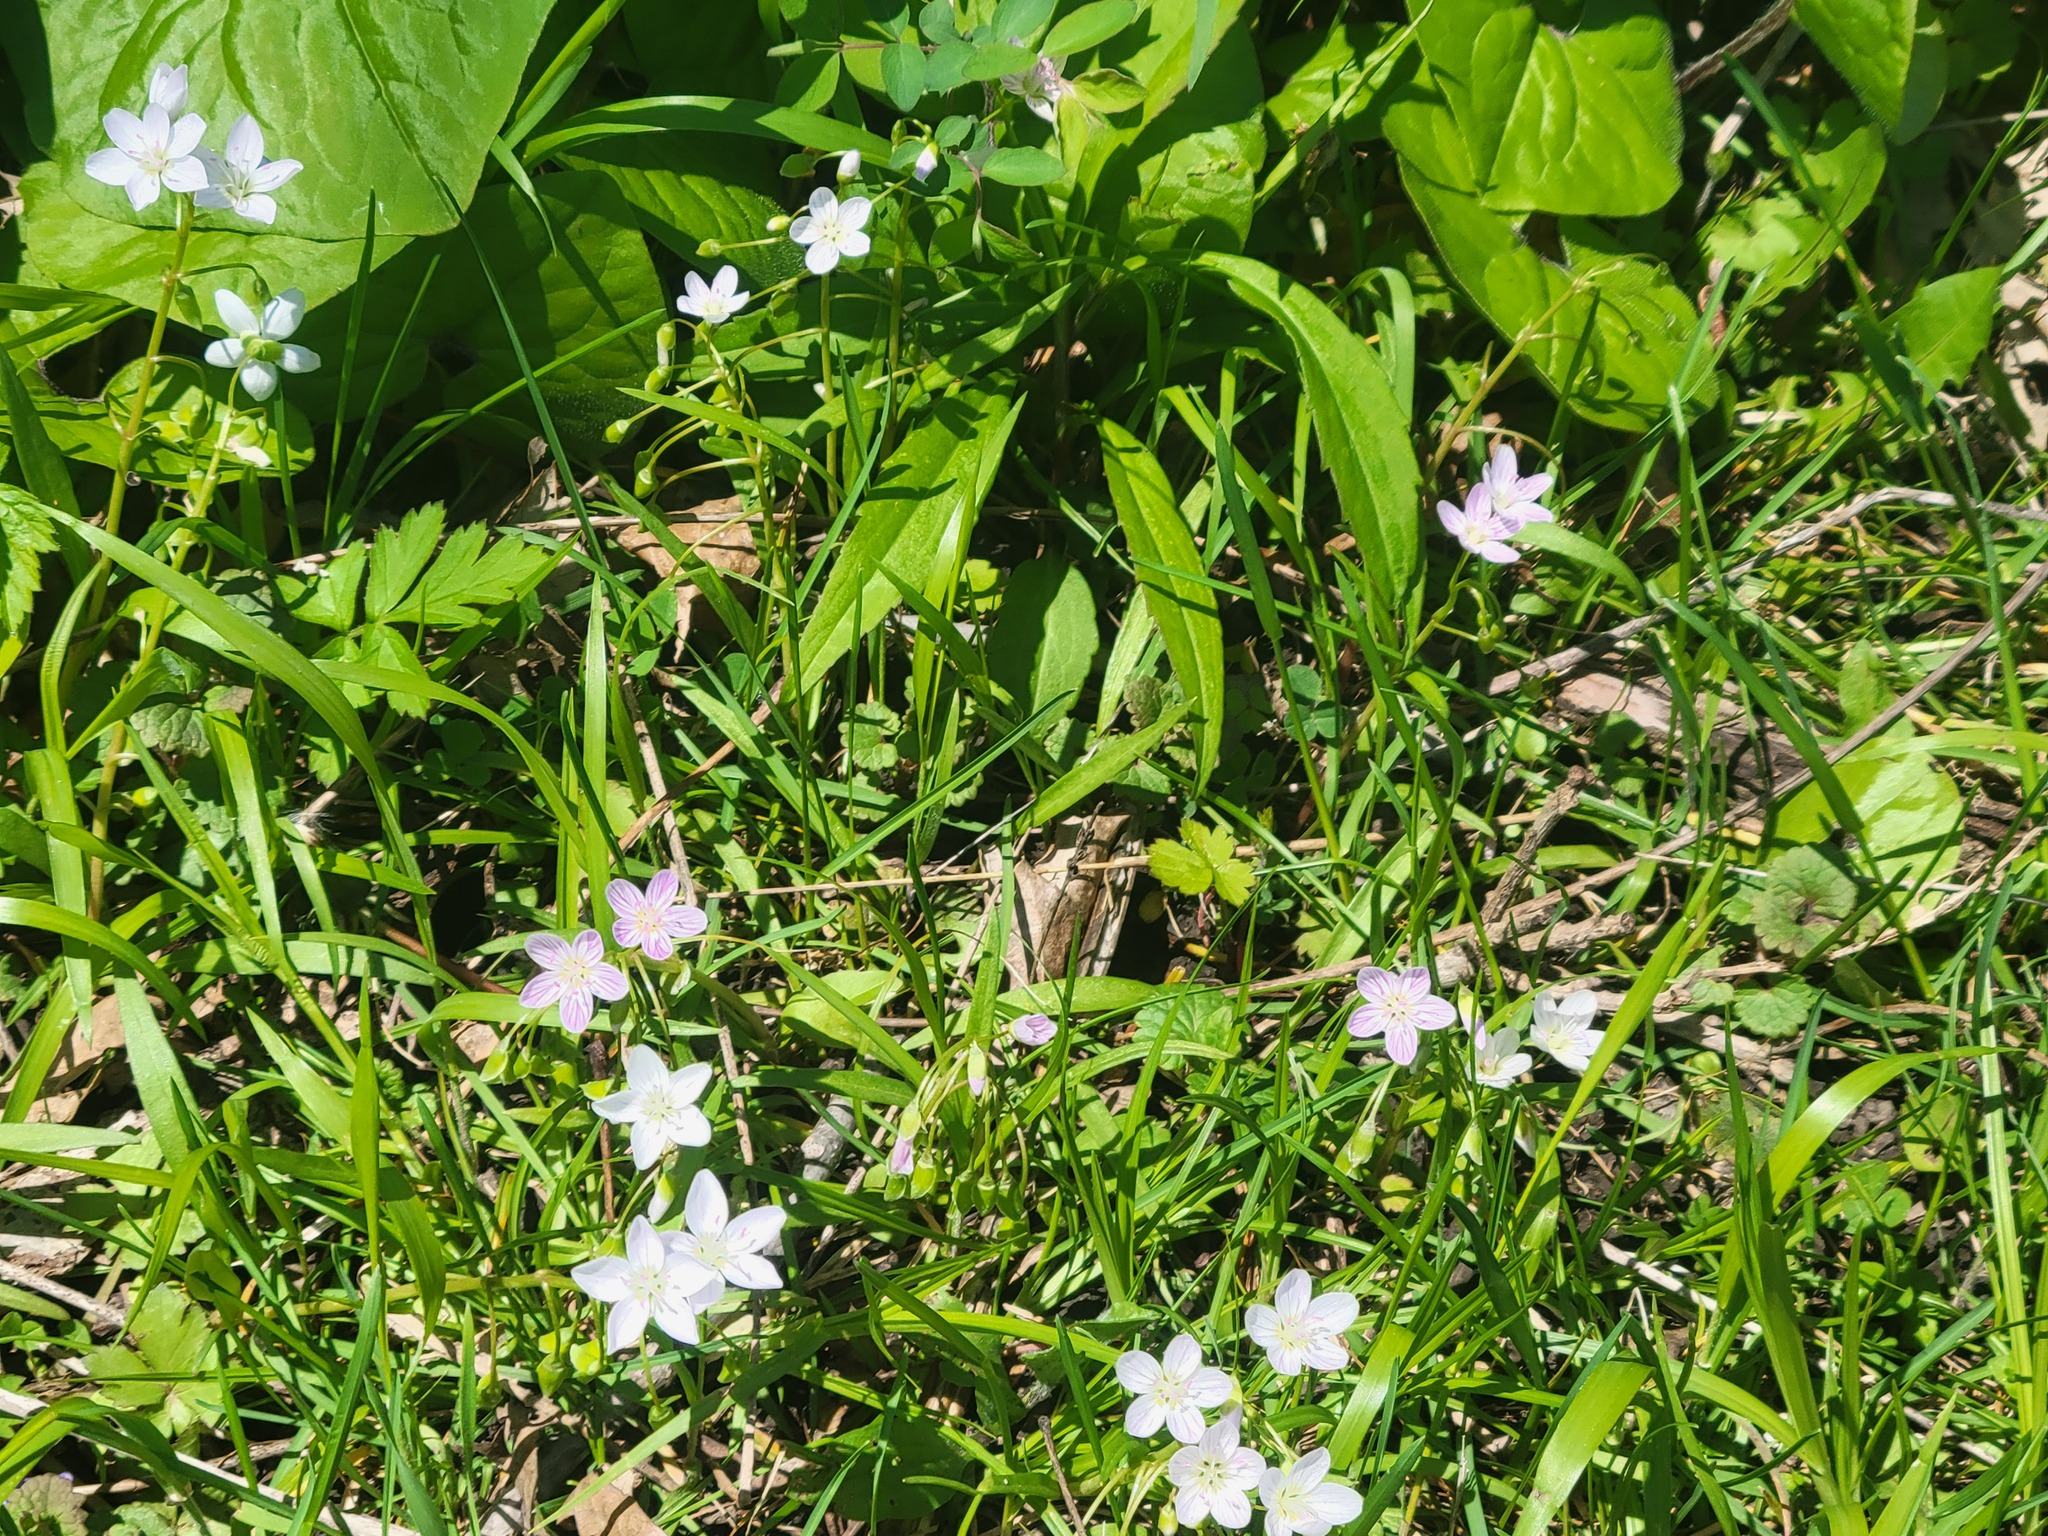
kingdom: Plantae
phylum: Tracheophyta
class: Magnoliopsida
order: Caryophyllales
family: Montiaceae
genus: Claytonia
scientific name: Claytonia virginica
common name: Virginia springbeauty
